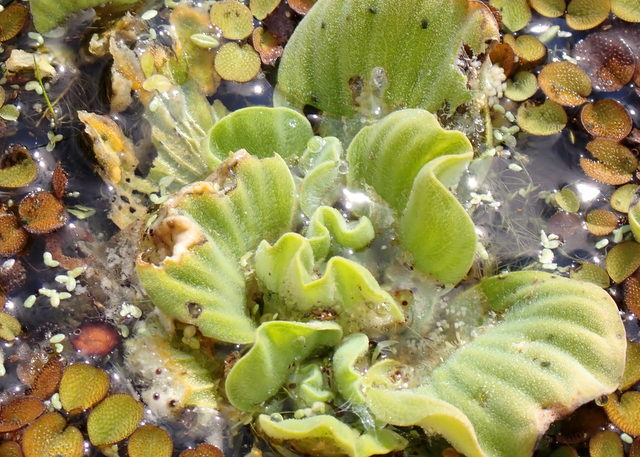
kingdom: Plantae
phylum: Tracheophyta
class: Liliopsida
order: Alismatales
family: Araceae
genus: Pistia
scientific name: Pistia stratiotes
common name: Water lettuce
